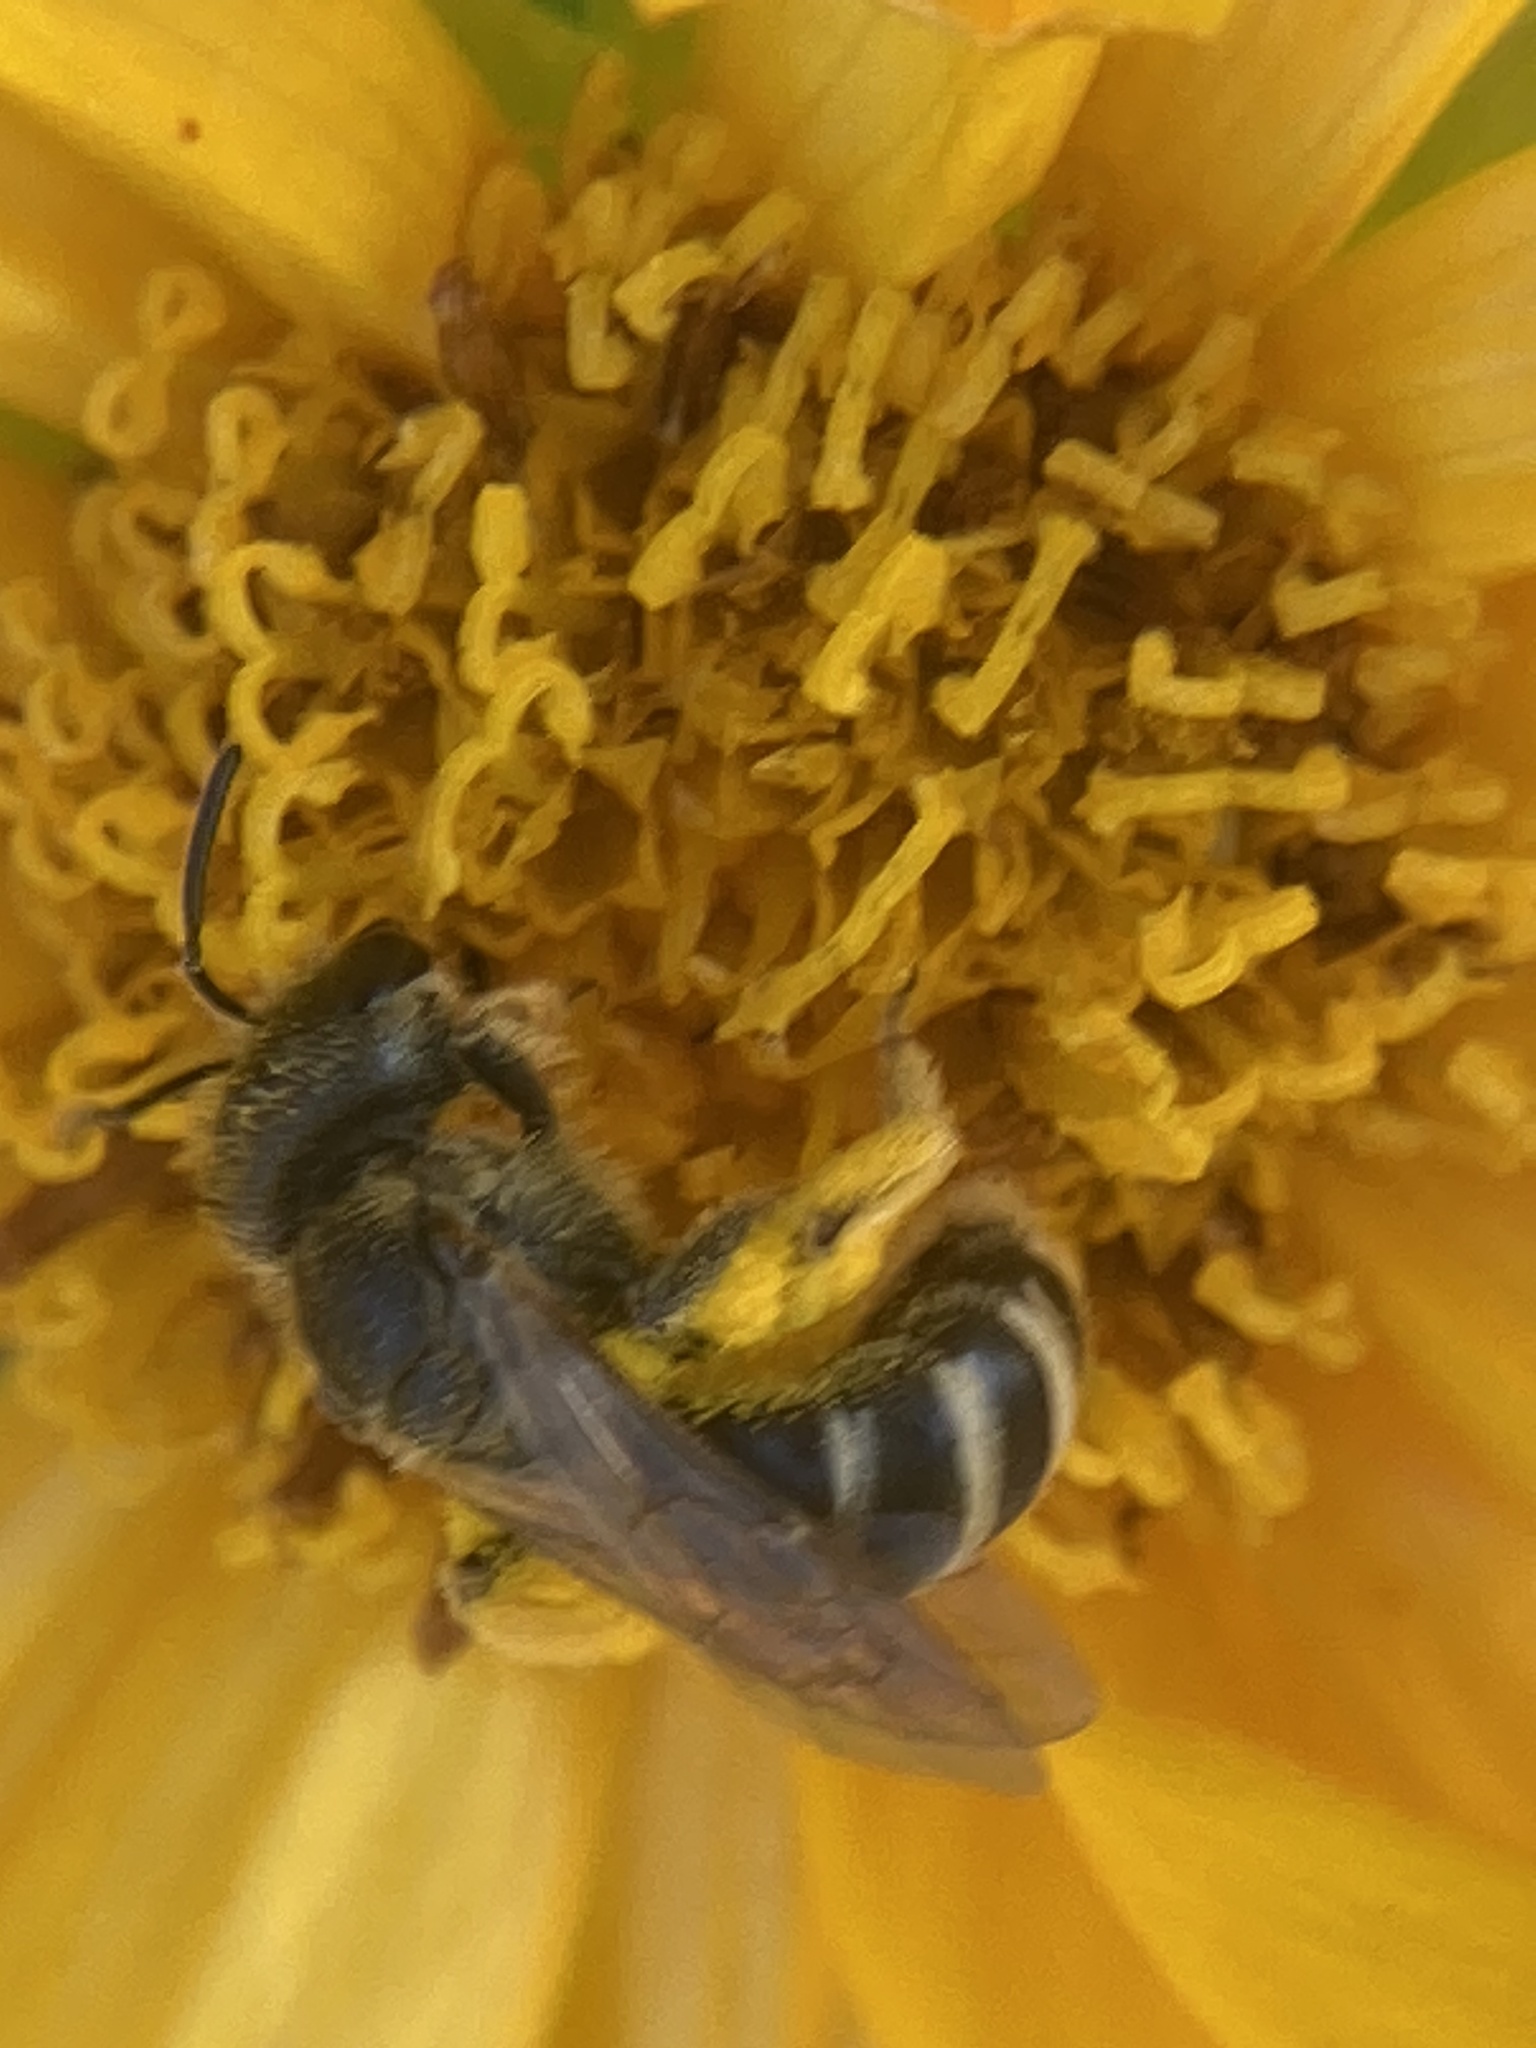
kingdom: Animalia
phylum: Arthropoda
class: Insecta
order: Hymenoptera
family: Halictidae
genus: Halictus
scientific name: Halictus ligatus
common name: Ligated furrow bee
